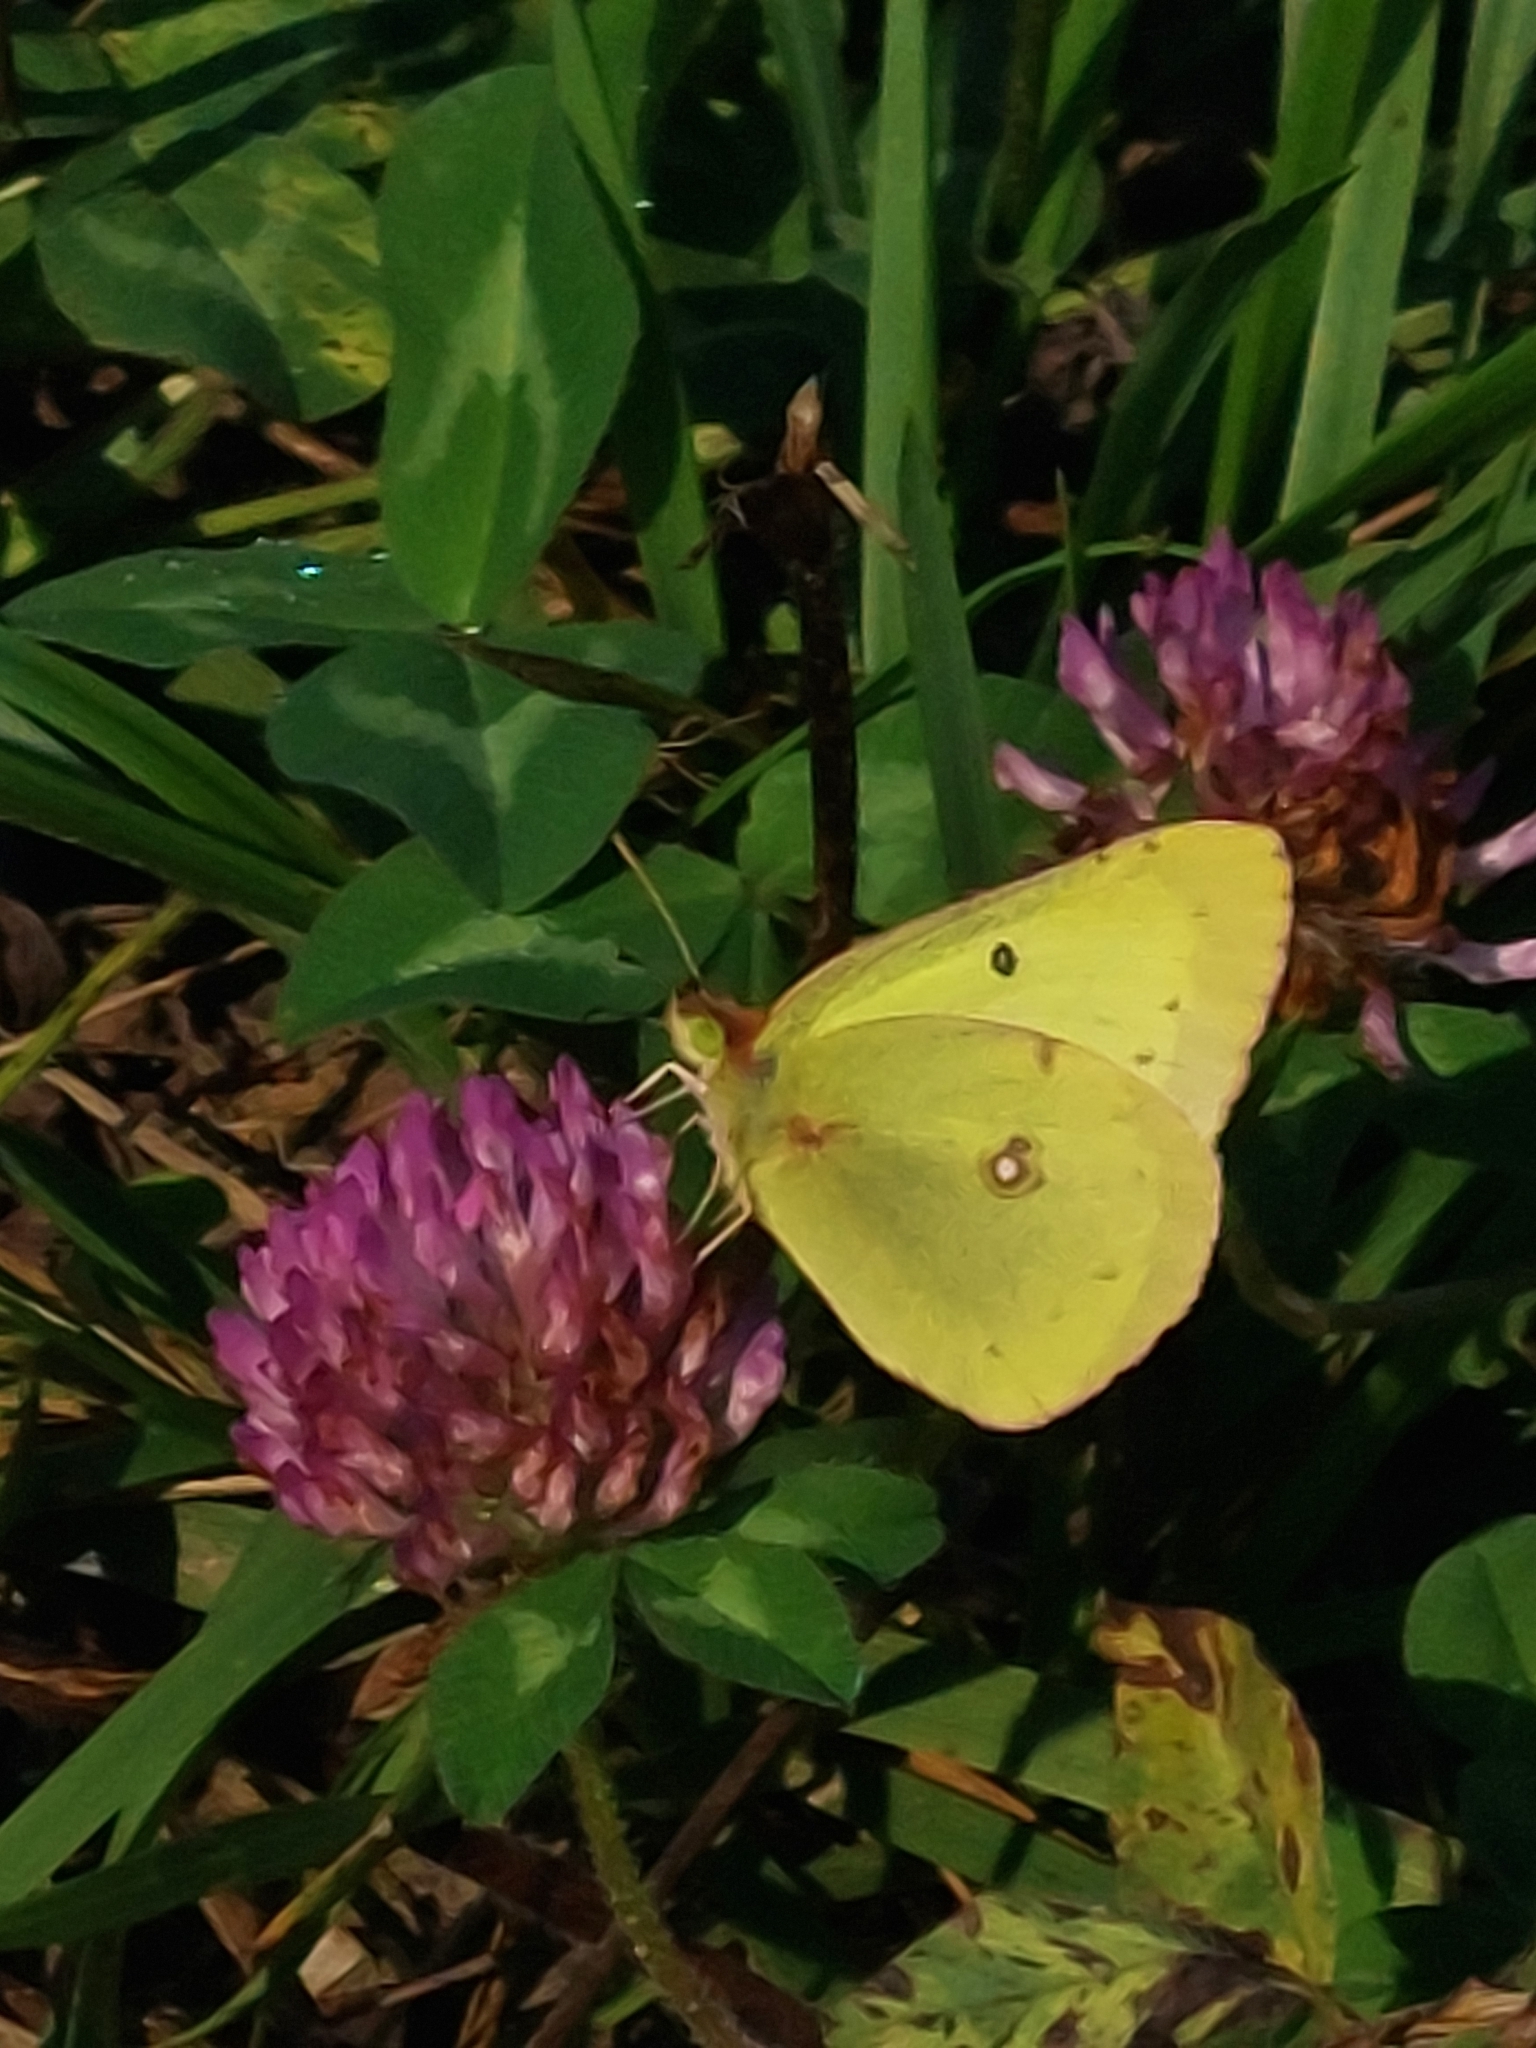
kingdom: Animalia
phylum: Arthropoda
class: Insecta
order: Lepidoptera
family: Pieridae
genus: Colias
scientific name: Colias philodice
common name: Clouded sulphur
